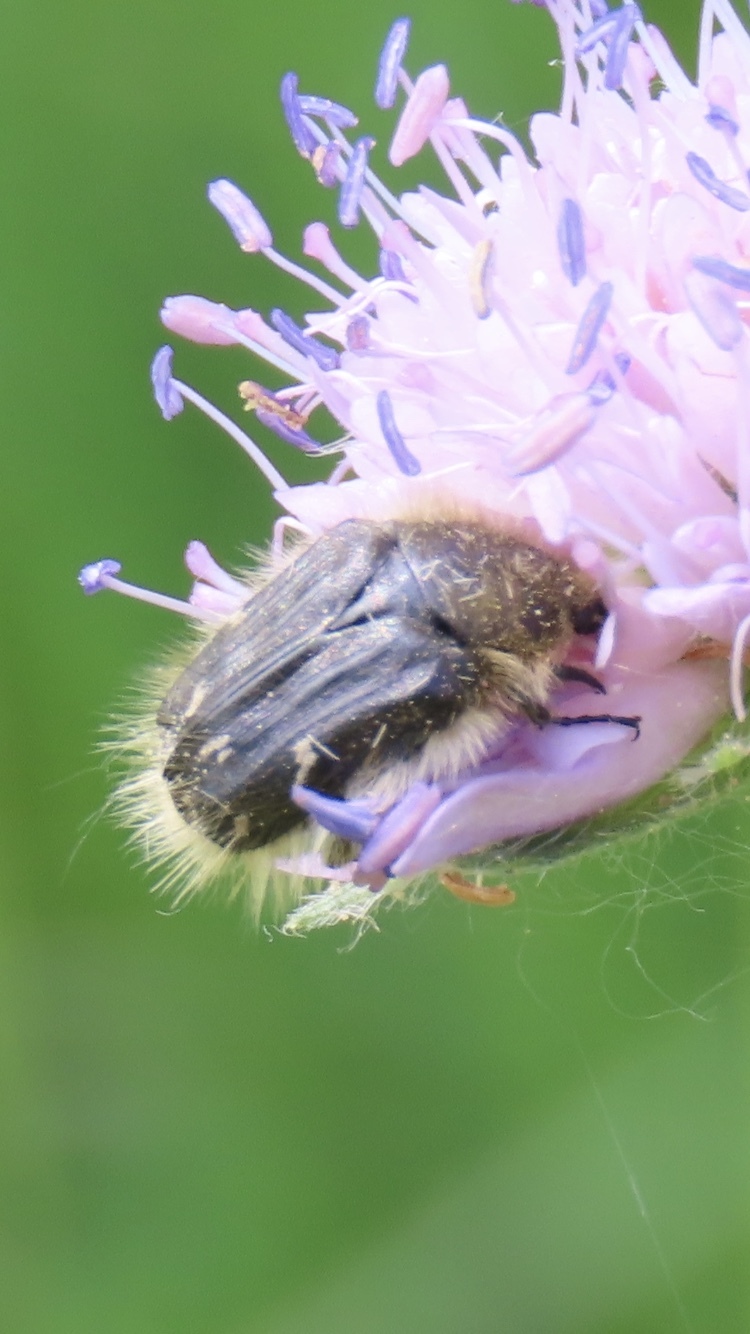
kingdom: Animalia
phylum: Arthropoda
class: Insecta
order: Coleoptera
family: Scarabaeidae
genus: Tropinota
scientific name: Tropinota hirta
